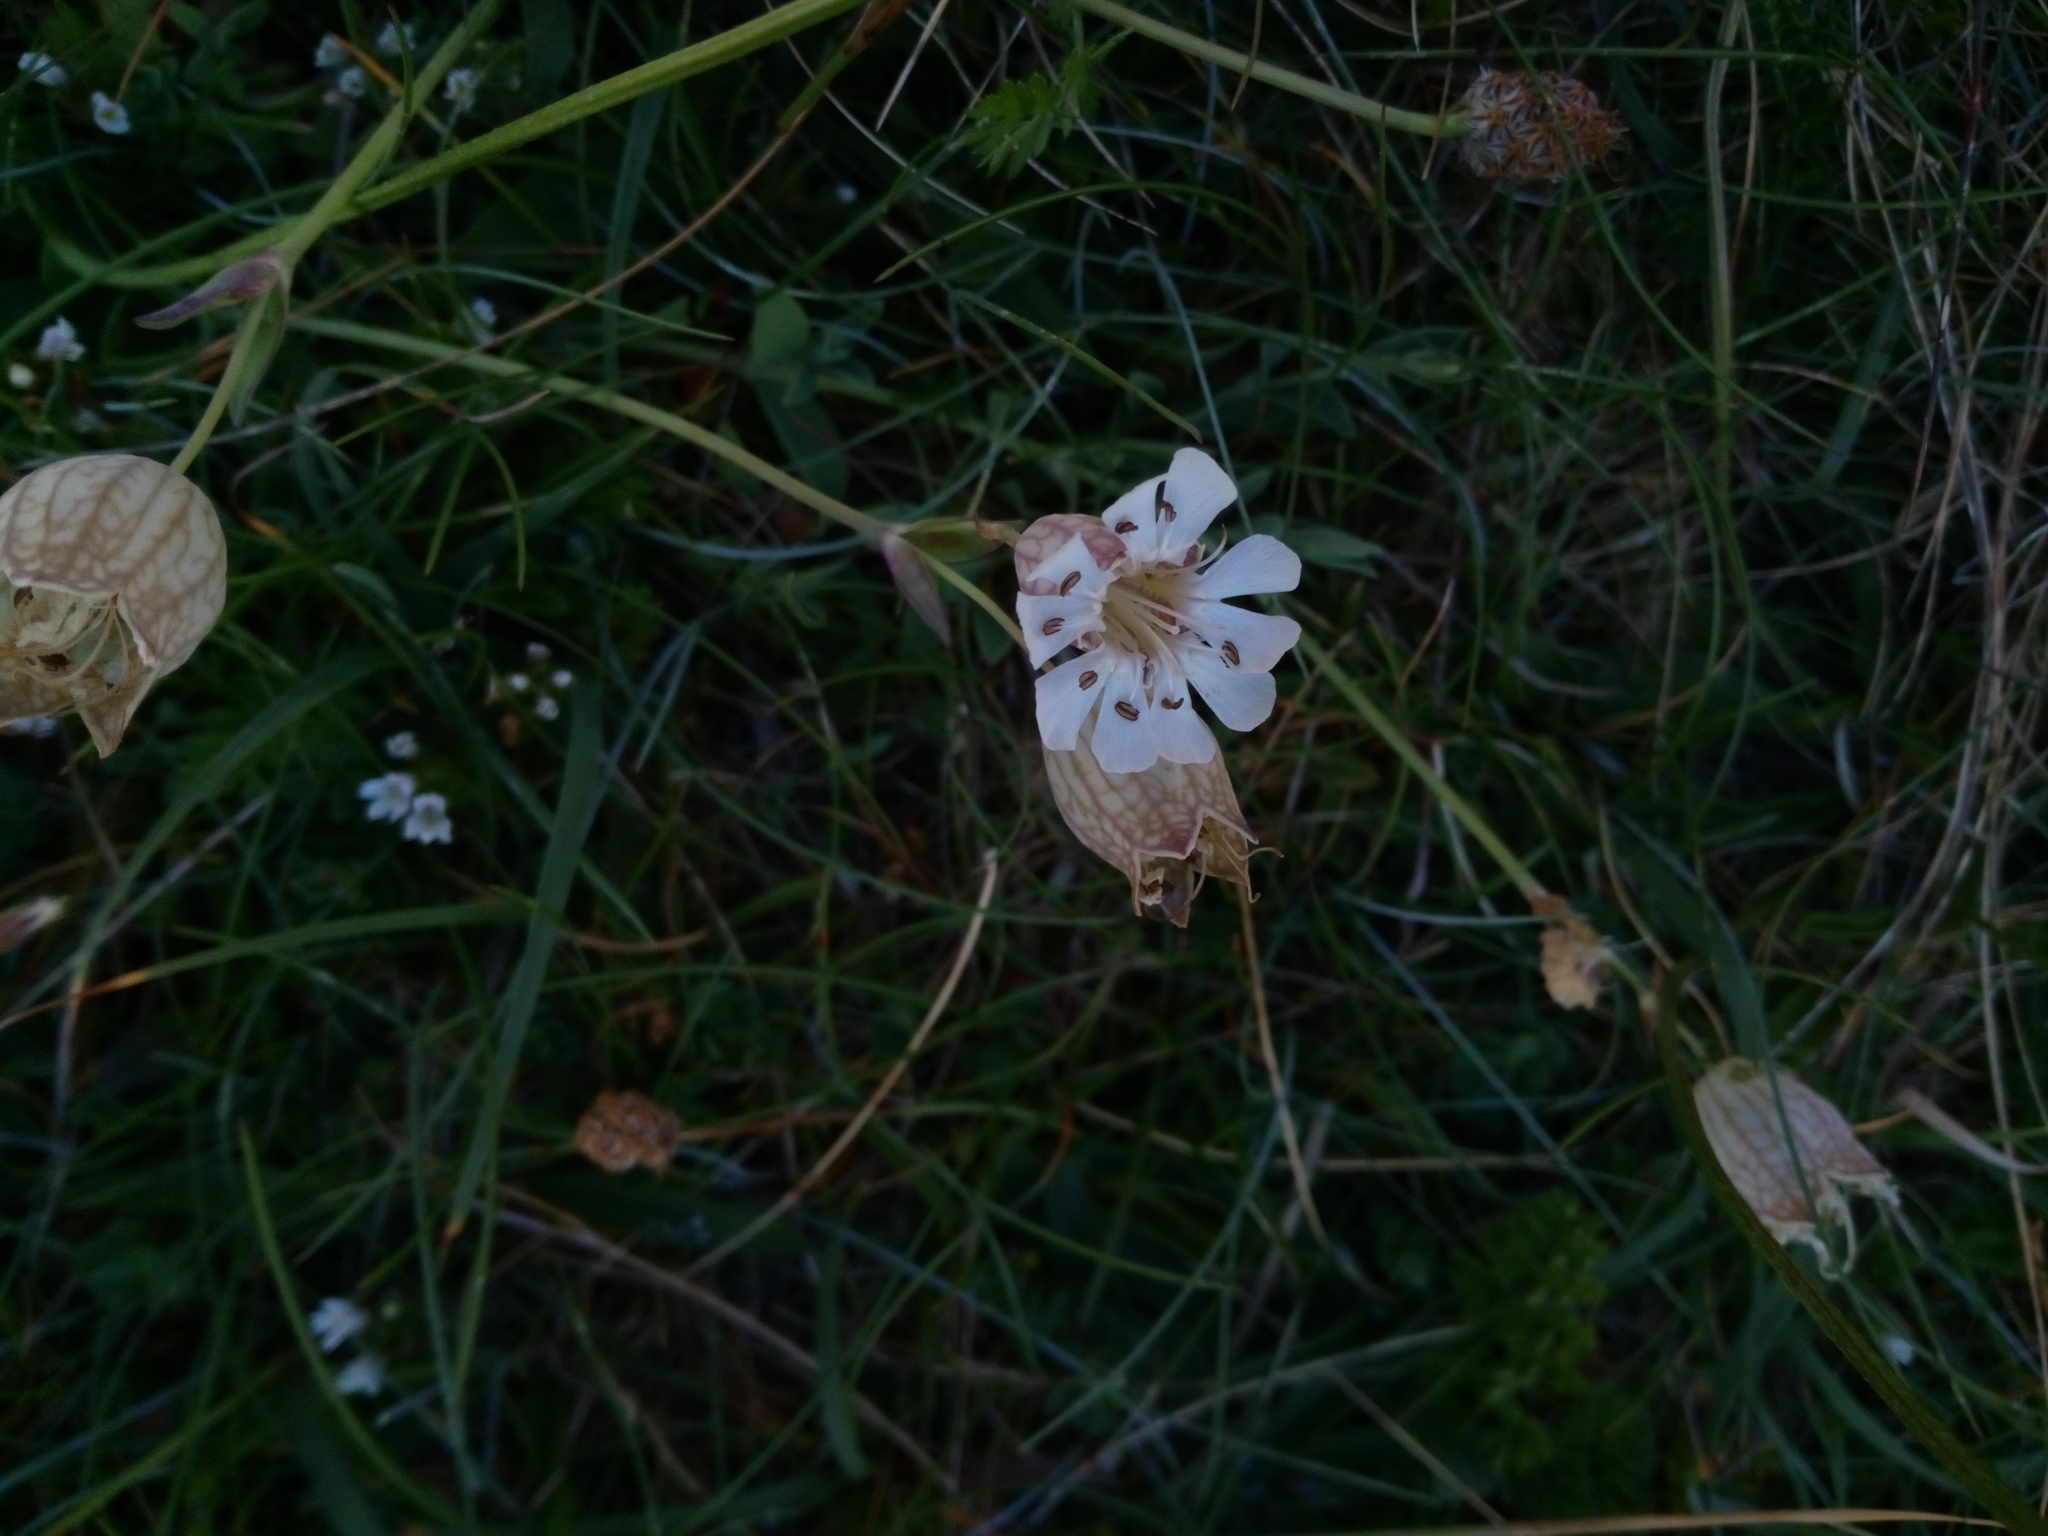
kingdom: Plantae
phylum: Tracheophyta
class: Magnoliopsida
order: Caryophyllales
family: Caryophyllaceae
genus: Silene
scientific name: Silene uniflora
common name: Sea campion
